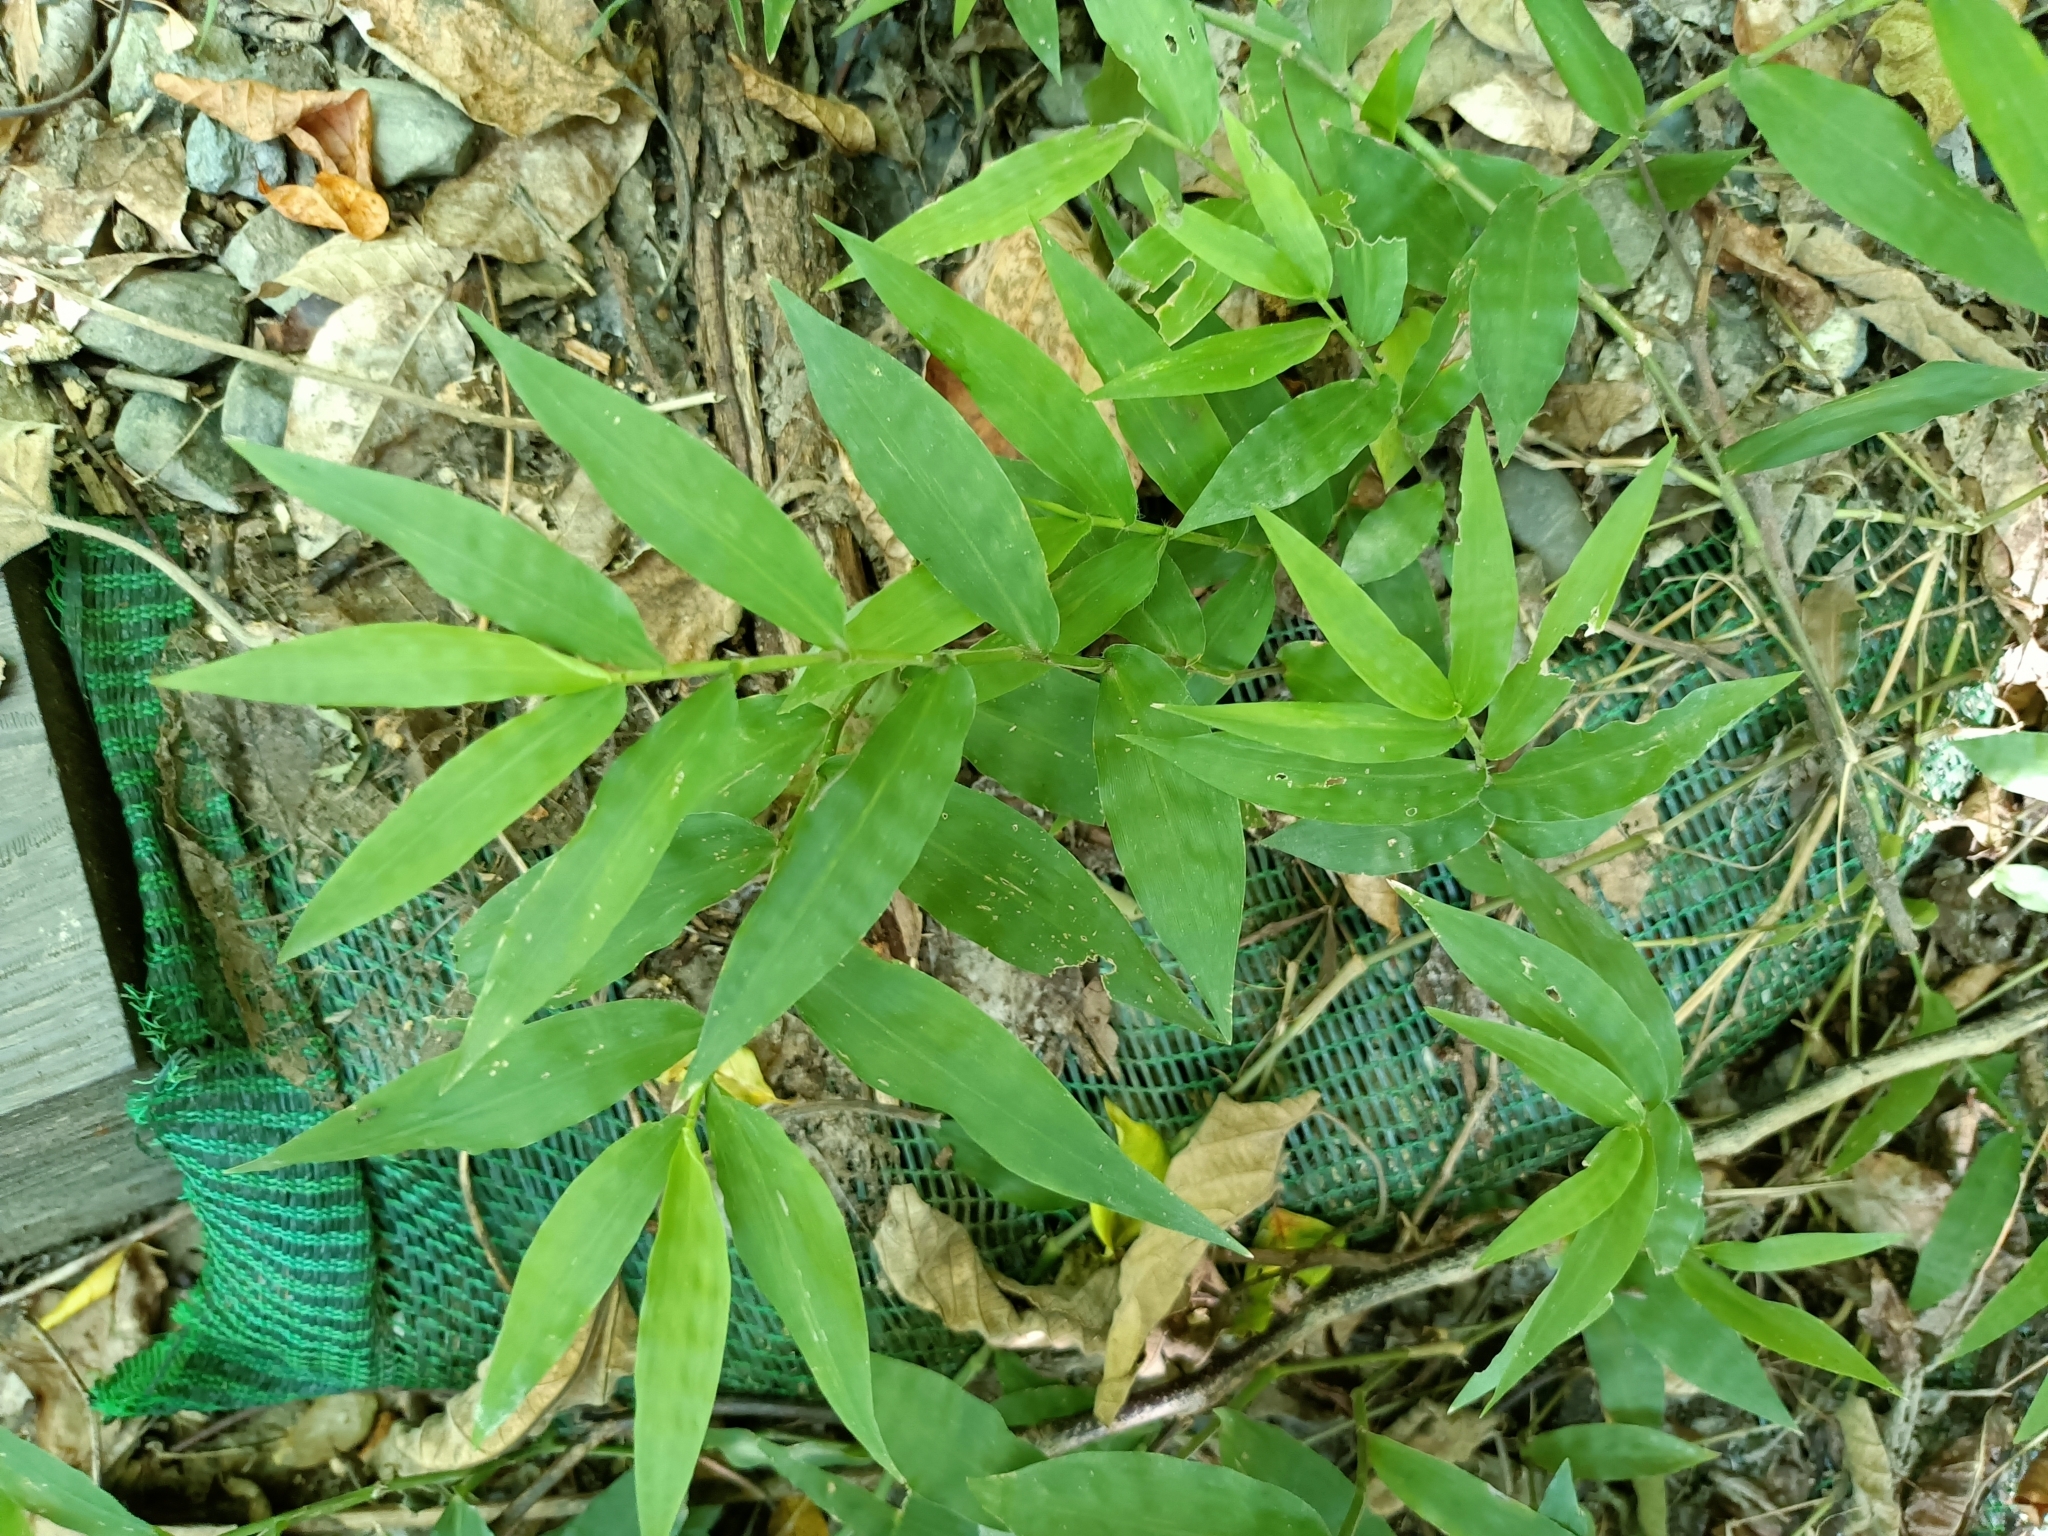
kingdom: Plantae
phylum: Tracheophyta
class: Liliopsida
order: Poales
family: Poaceae
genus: Oplismenus
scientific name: Oplismenus compositus
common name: Running mountain grass
